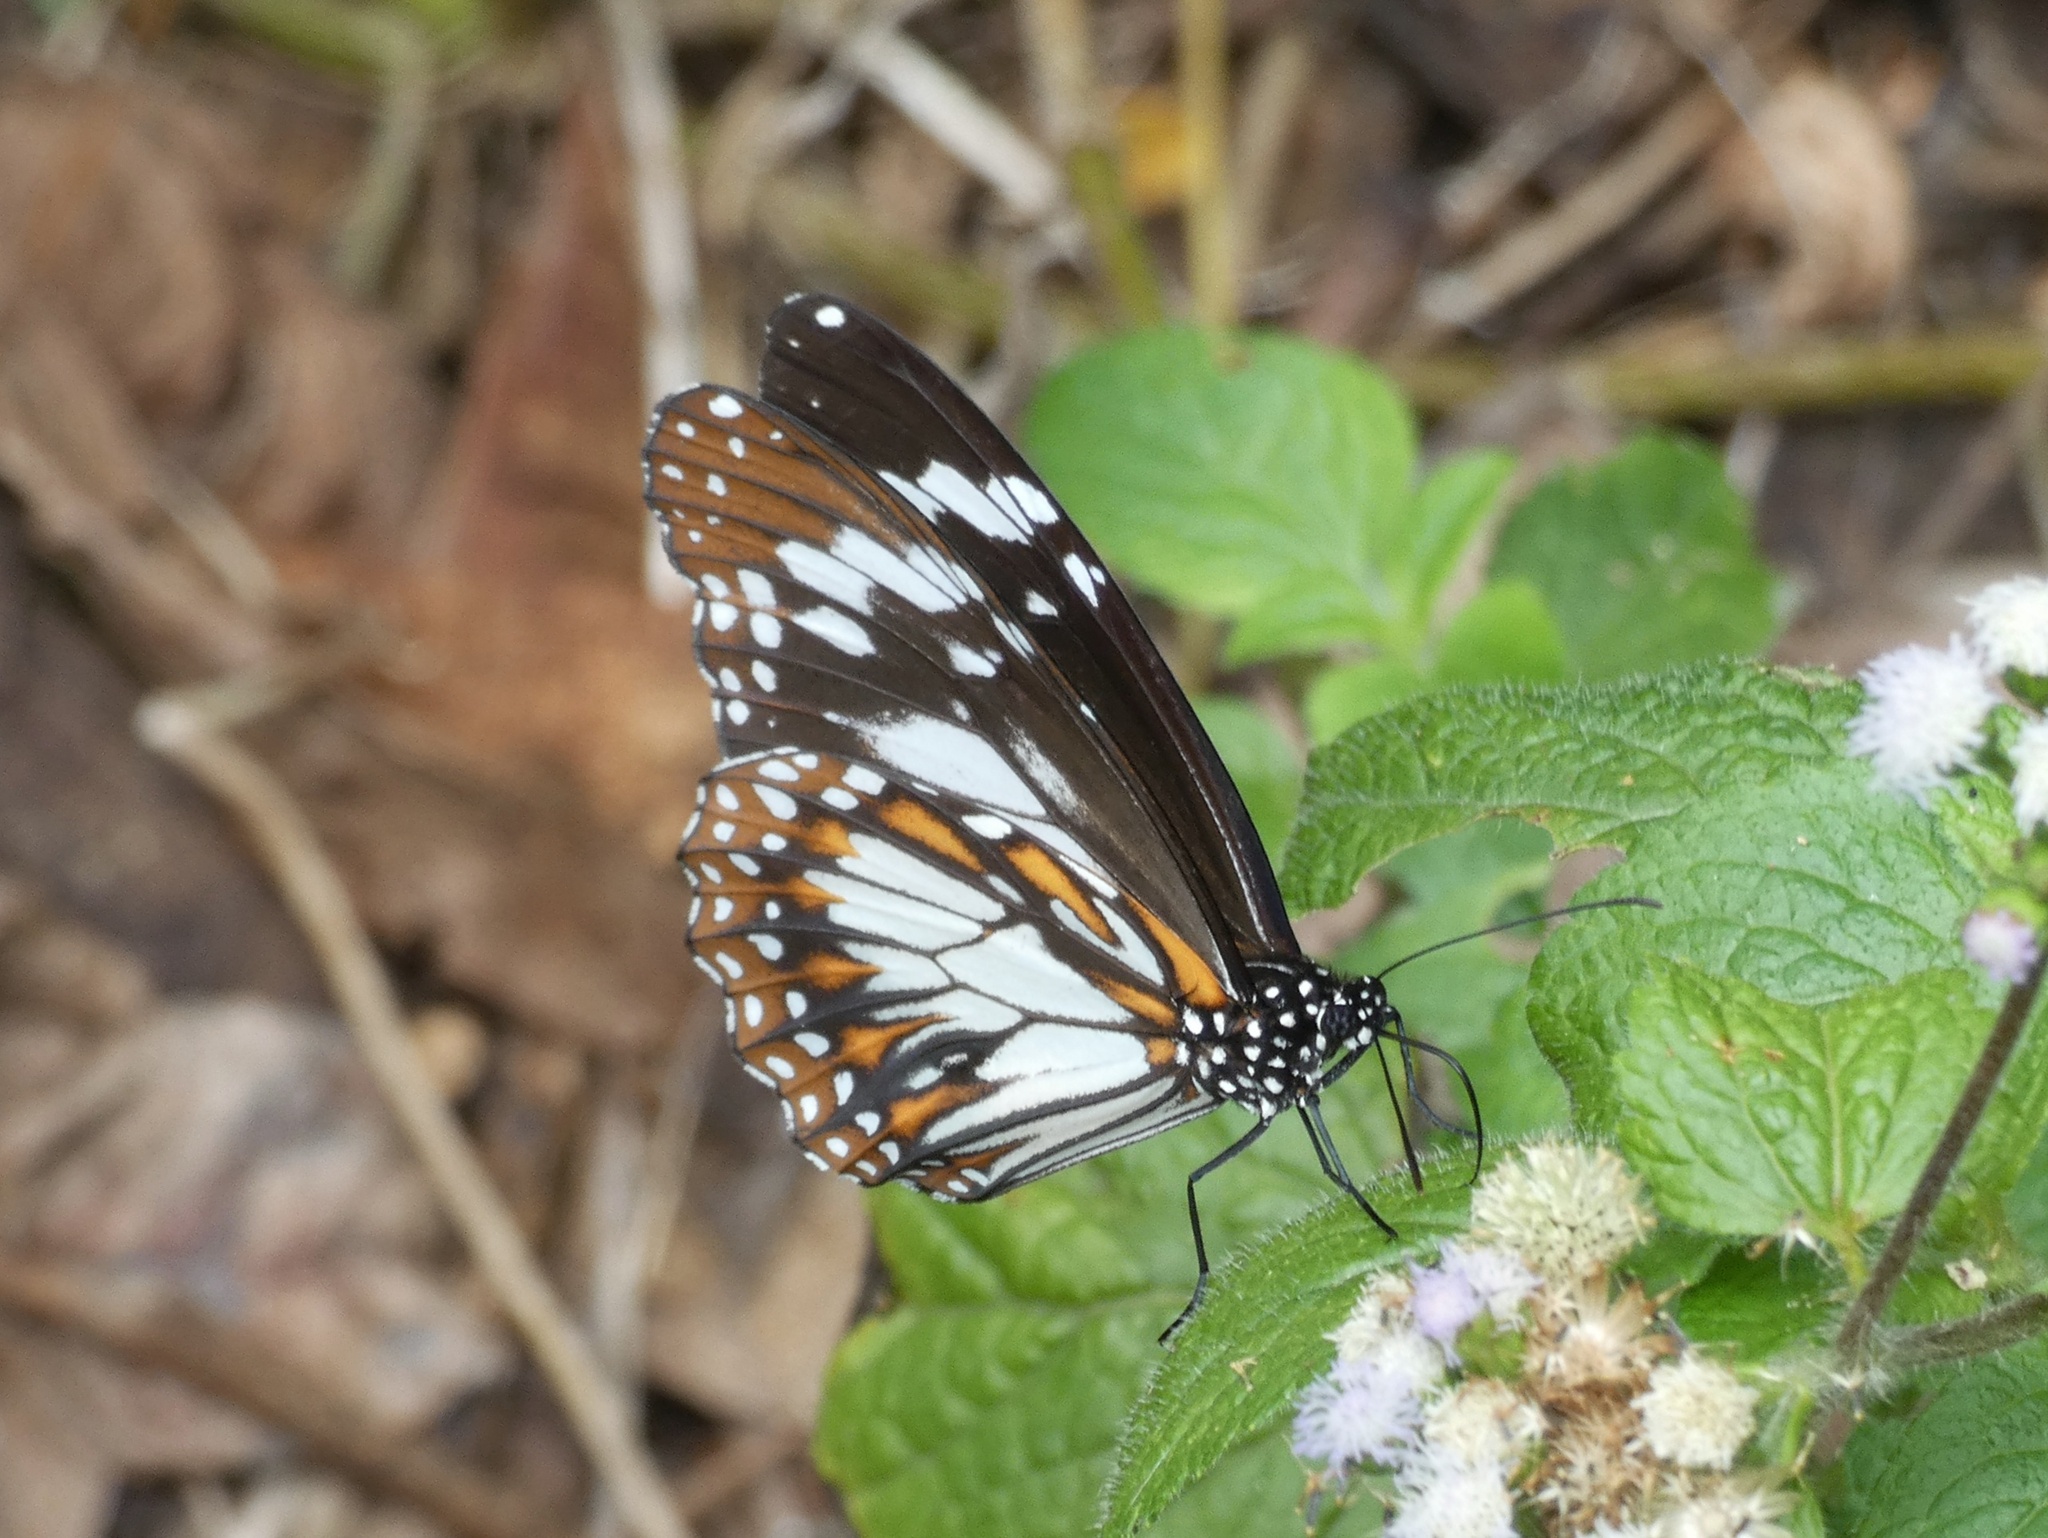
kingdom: Animalia
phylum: Arthropoda
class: Insecta
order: Lepidoptera
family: Nymphalidae
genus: Danaus
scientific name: Danaus affinis
